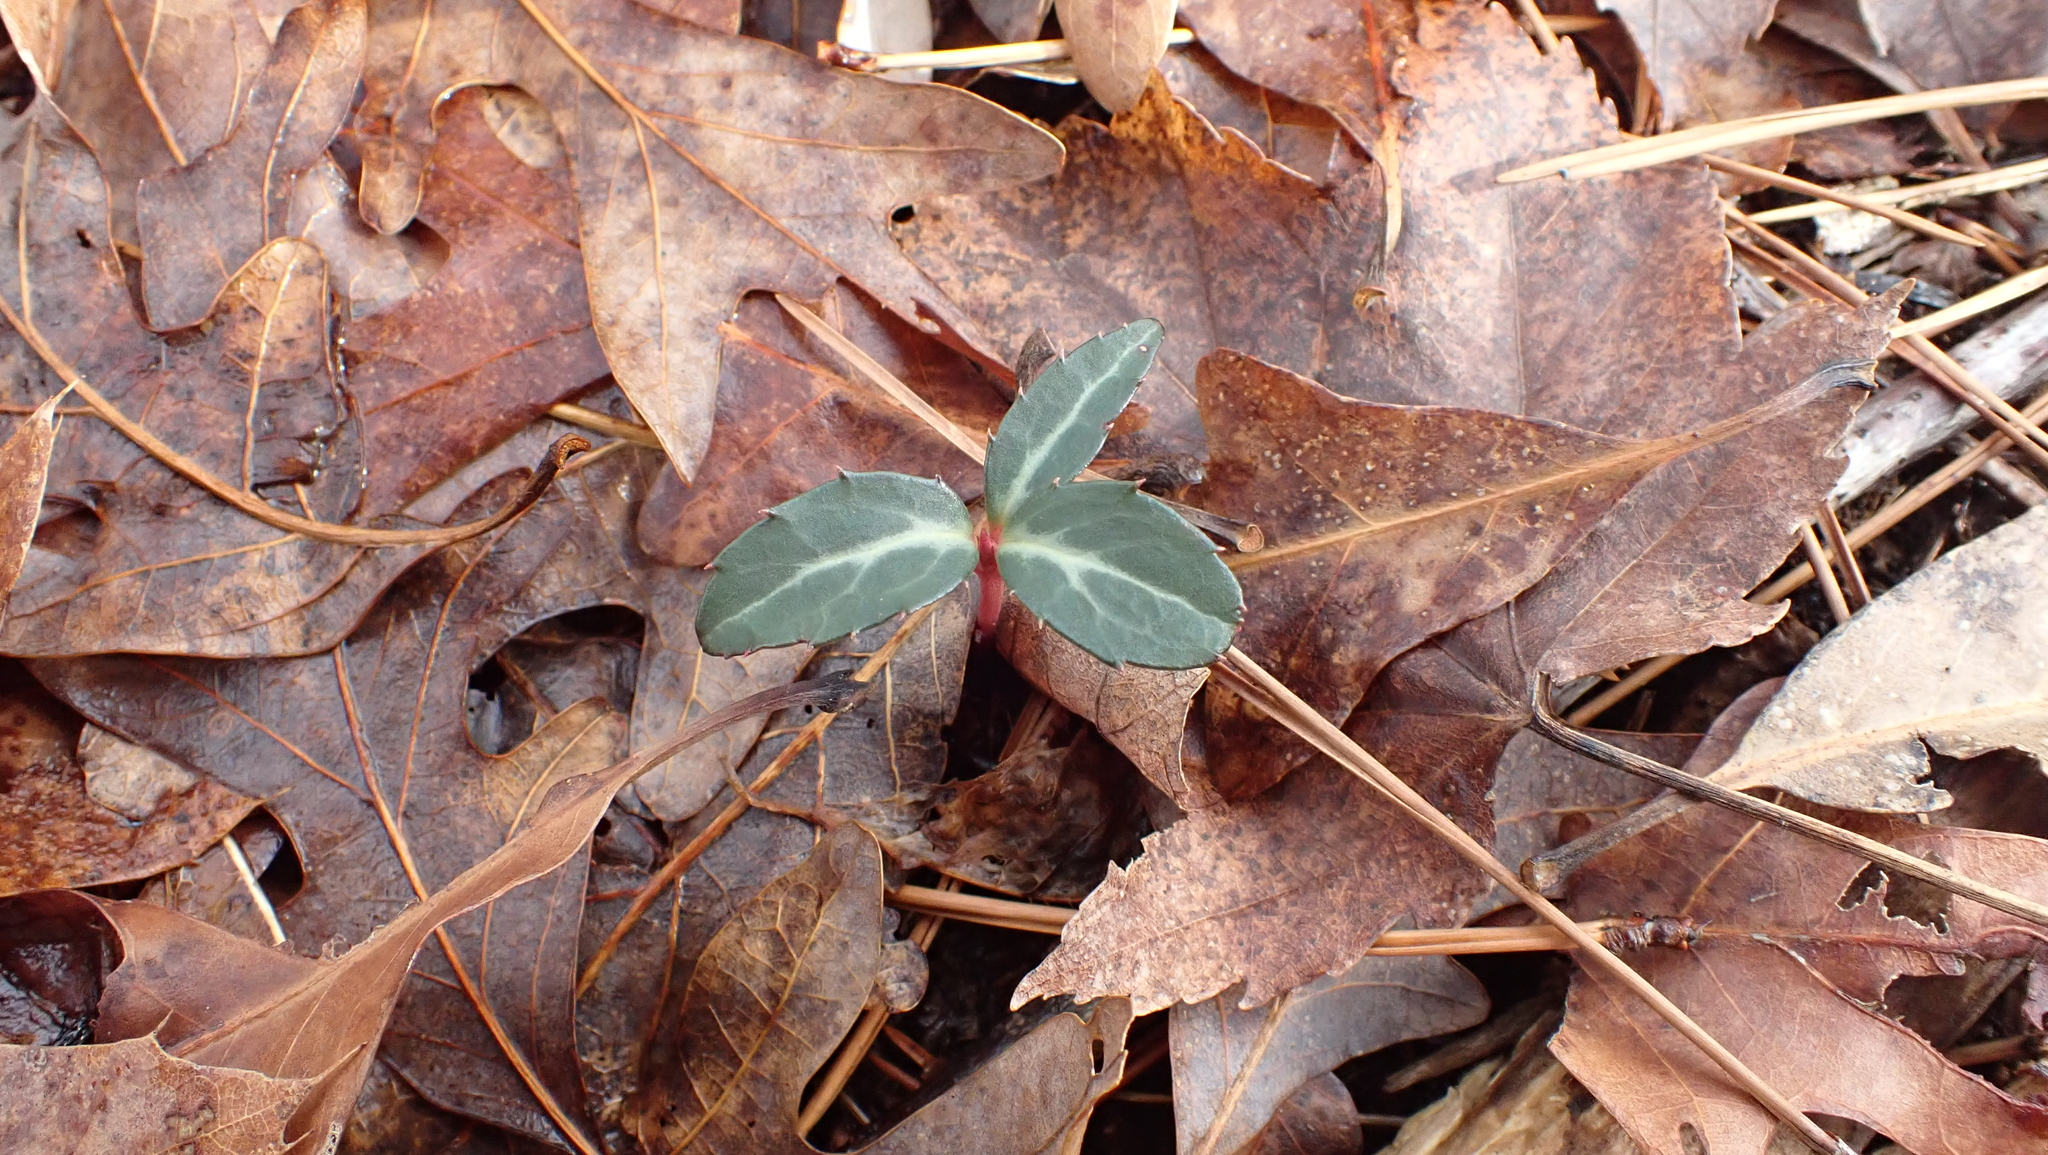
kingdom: Plantae
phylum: Tracheophyta
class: Magnoliopsida
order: Ericales
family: Ericaceae
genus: Chimaphila
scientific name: Chimaphila maculata
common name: Spotted pipsissewa
